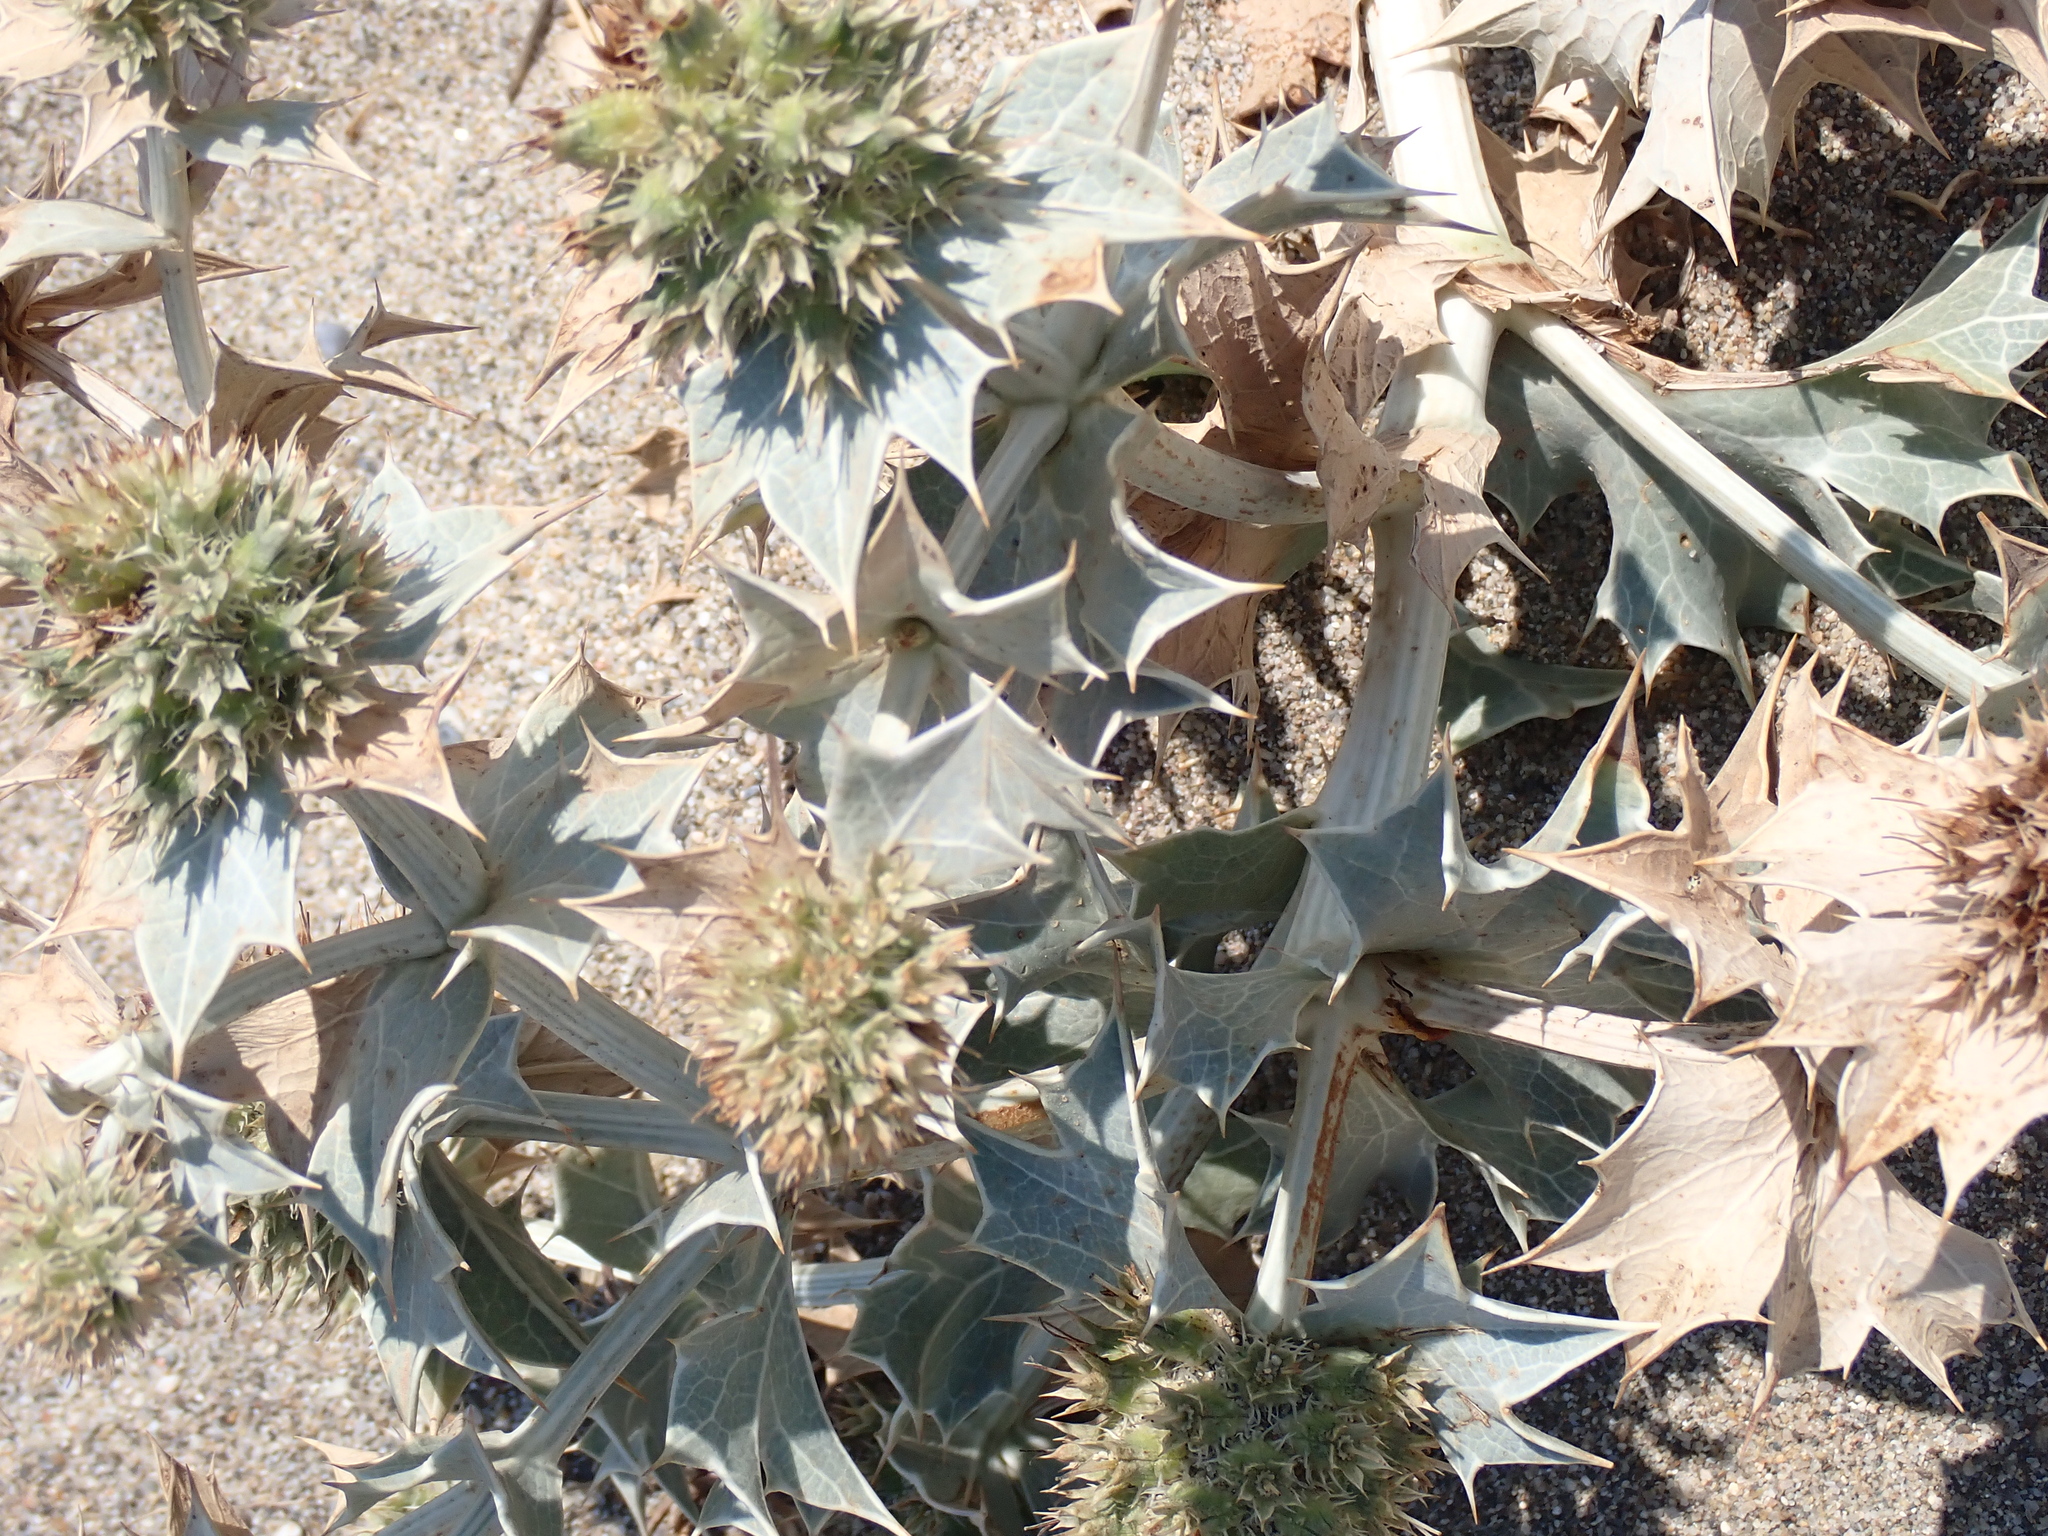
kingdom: Plantae
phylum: Tracheophyta
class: Magnoliopsida
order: Apiales
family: Apiaceae
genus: Eryngium
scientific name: Eryngium maritimum
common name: Sea-holly
